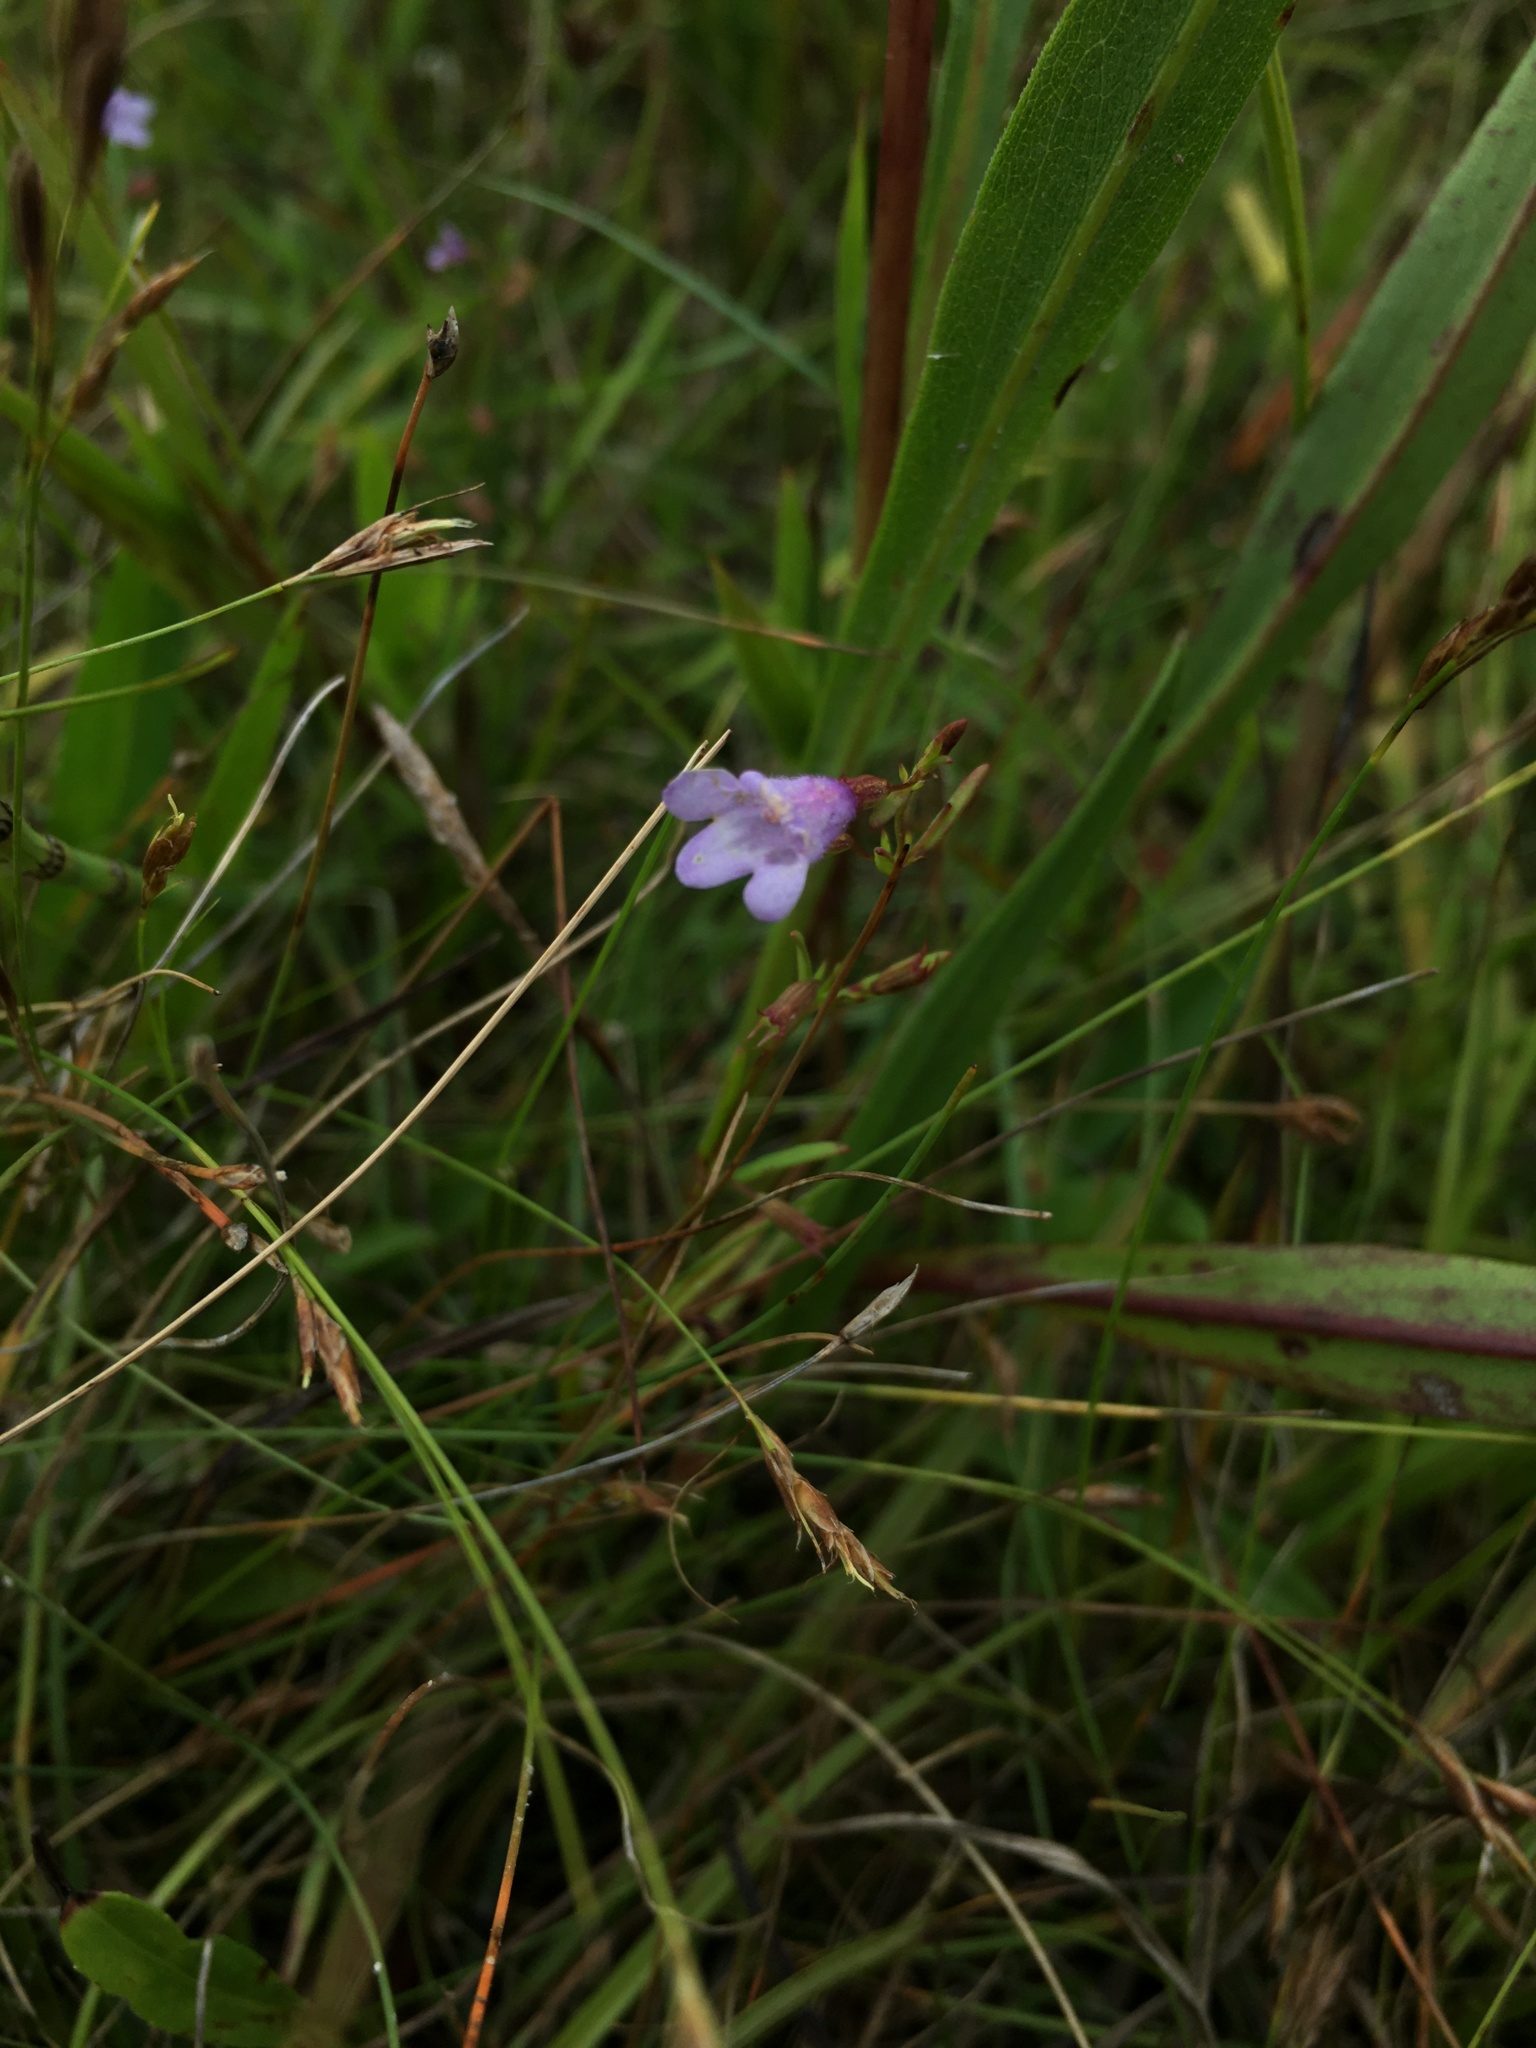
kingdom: Plantae
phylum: Tracheophyta
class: Magnoliopsida
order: Lamiales
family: Lamiaceae
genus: Clinopodium
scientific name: Clinopodium arkansanum
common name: Limestone calamint
